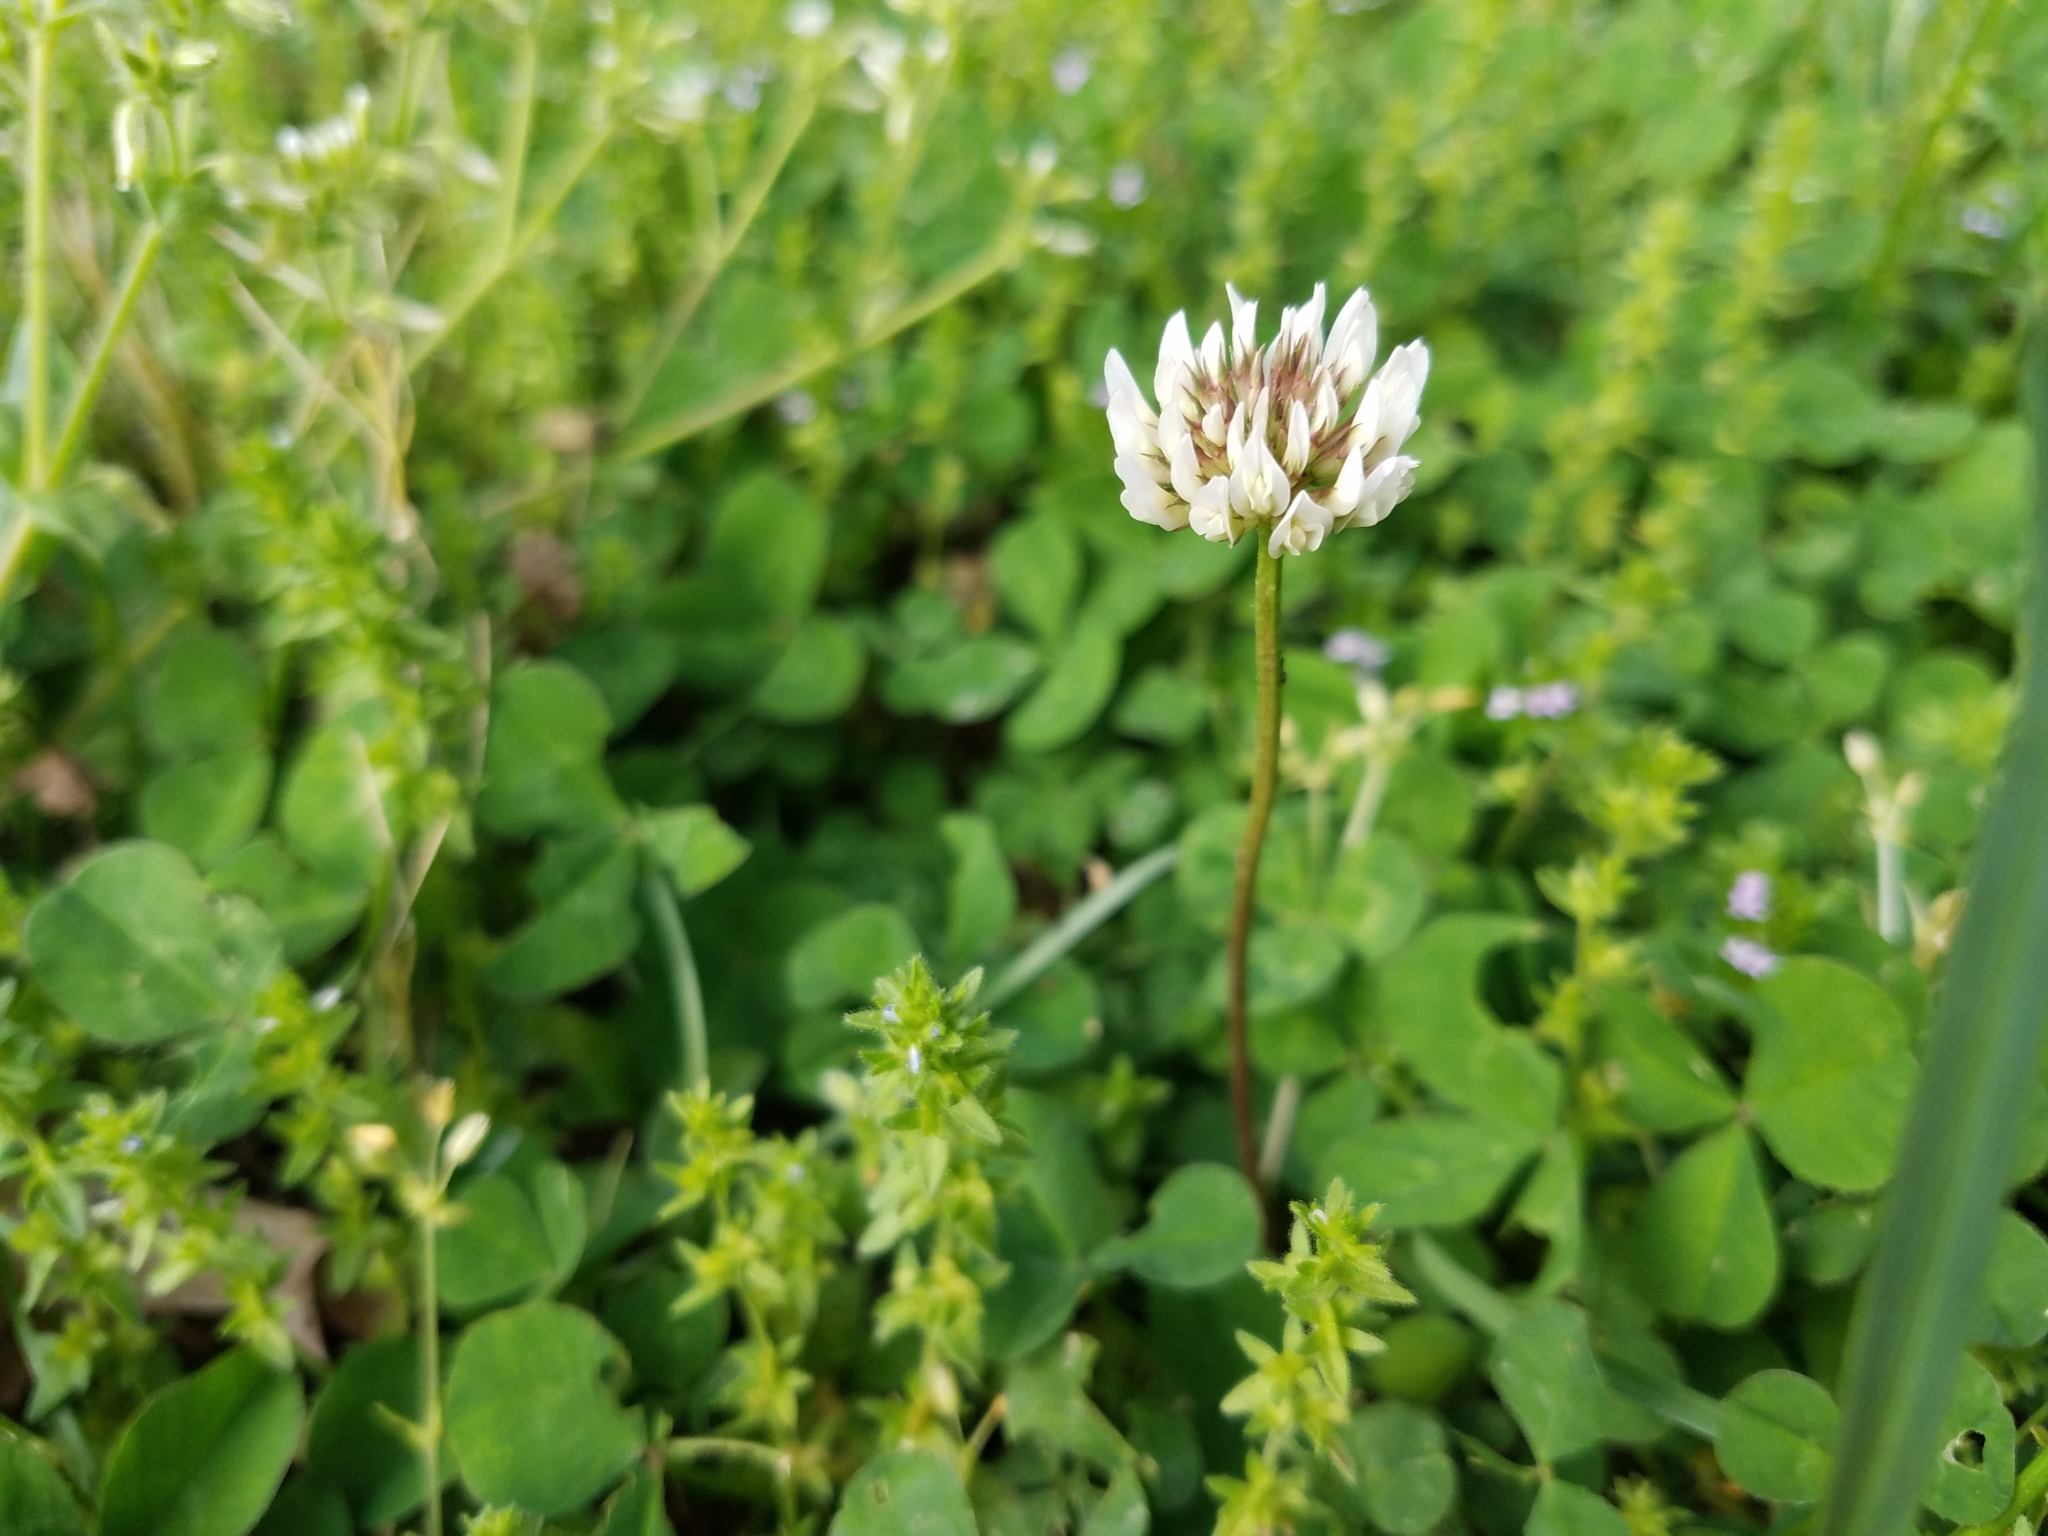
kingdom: Plantae
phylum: Tracheophyta
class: Magnoliopsida
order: Fabales
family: Fabaceae
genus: Trifolium
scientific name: Trifolium repens
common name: White clover
